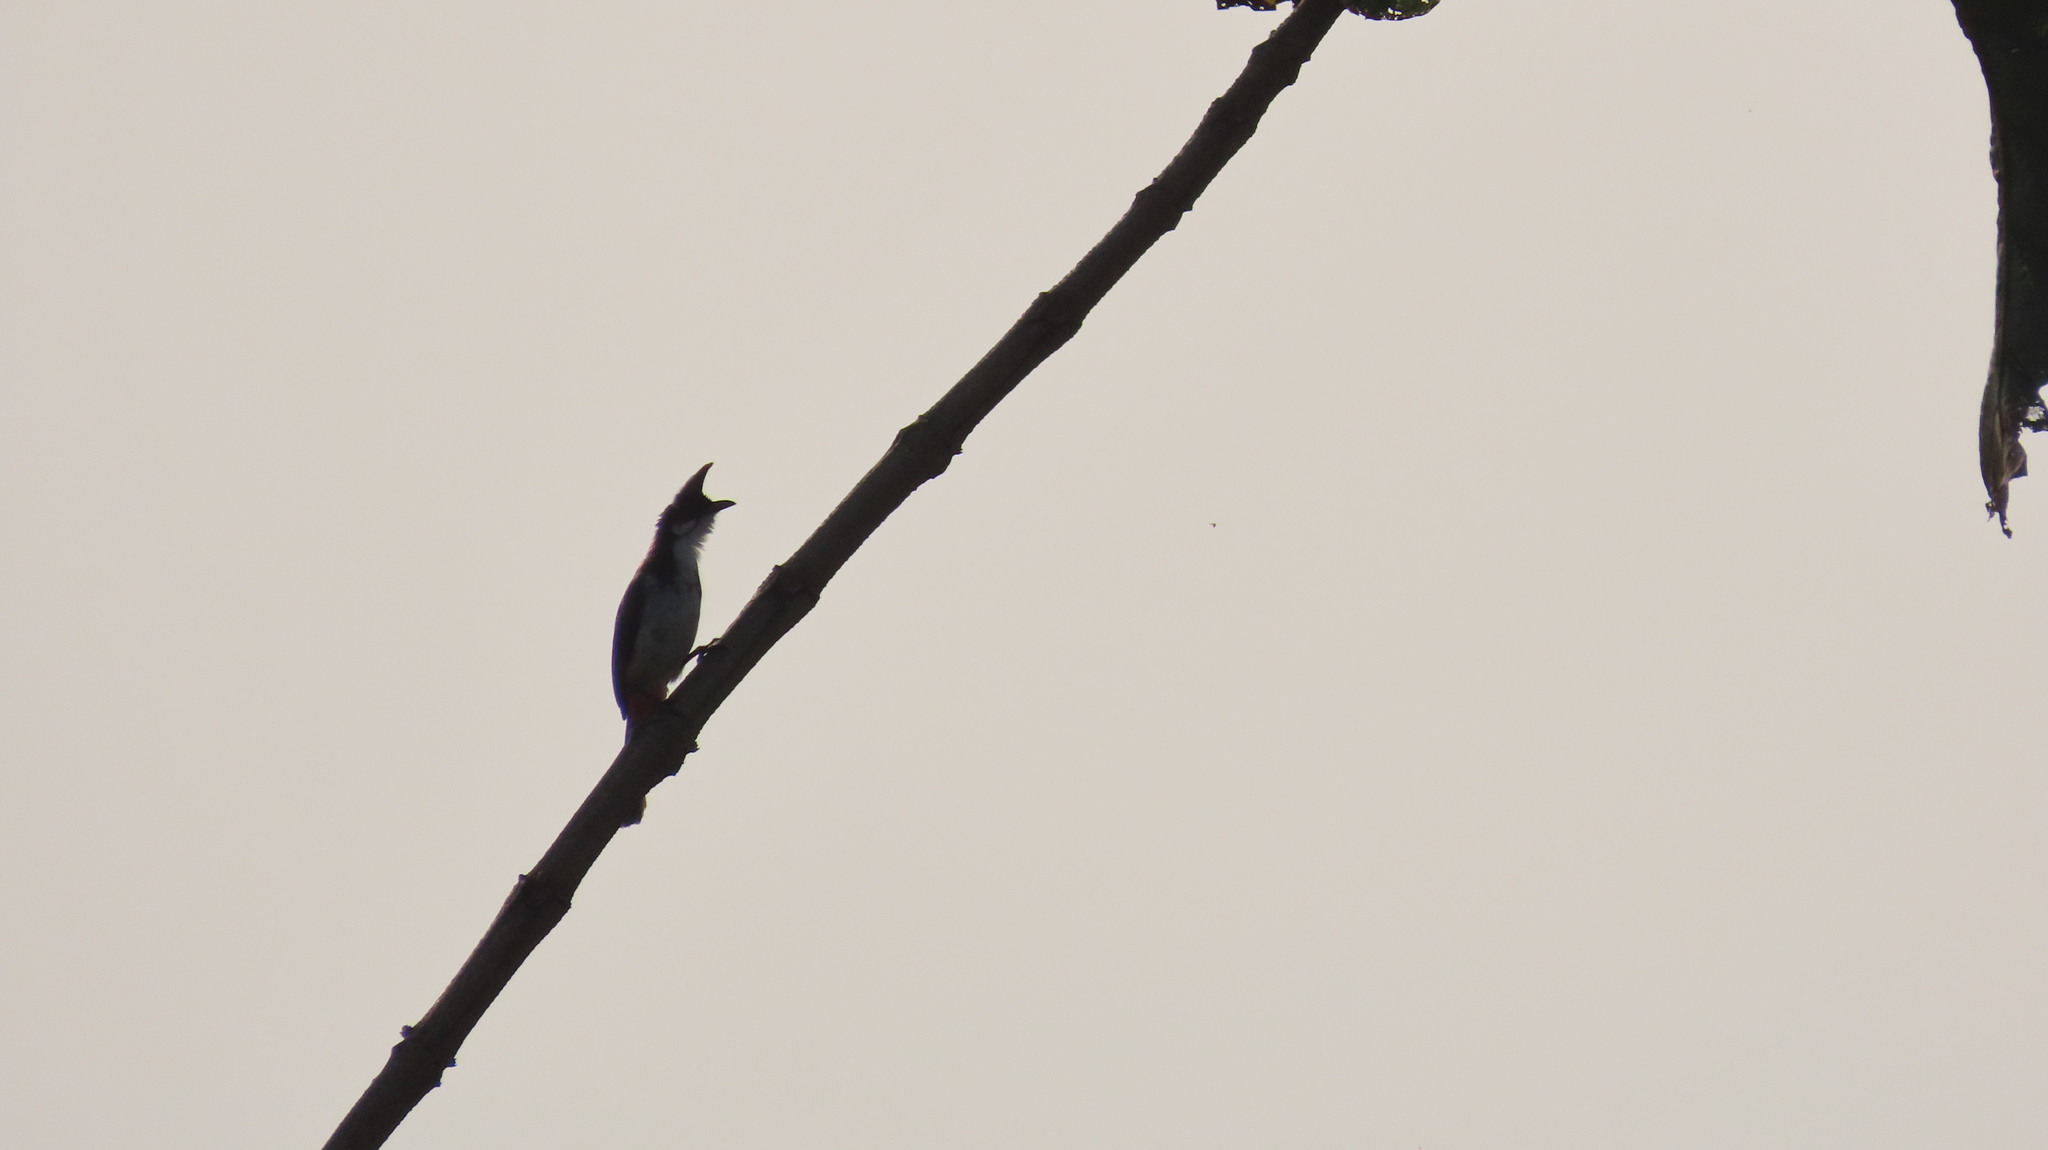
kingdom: Animalia
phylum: Chordata
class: Aves
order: Passeriformes
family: Pycnonotidae
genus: Pycnonotus
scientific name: Pycnonotus jocosus
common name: Red-whiskered bulbul
